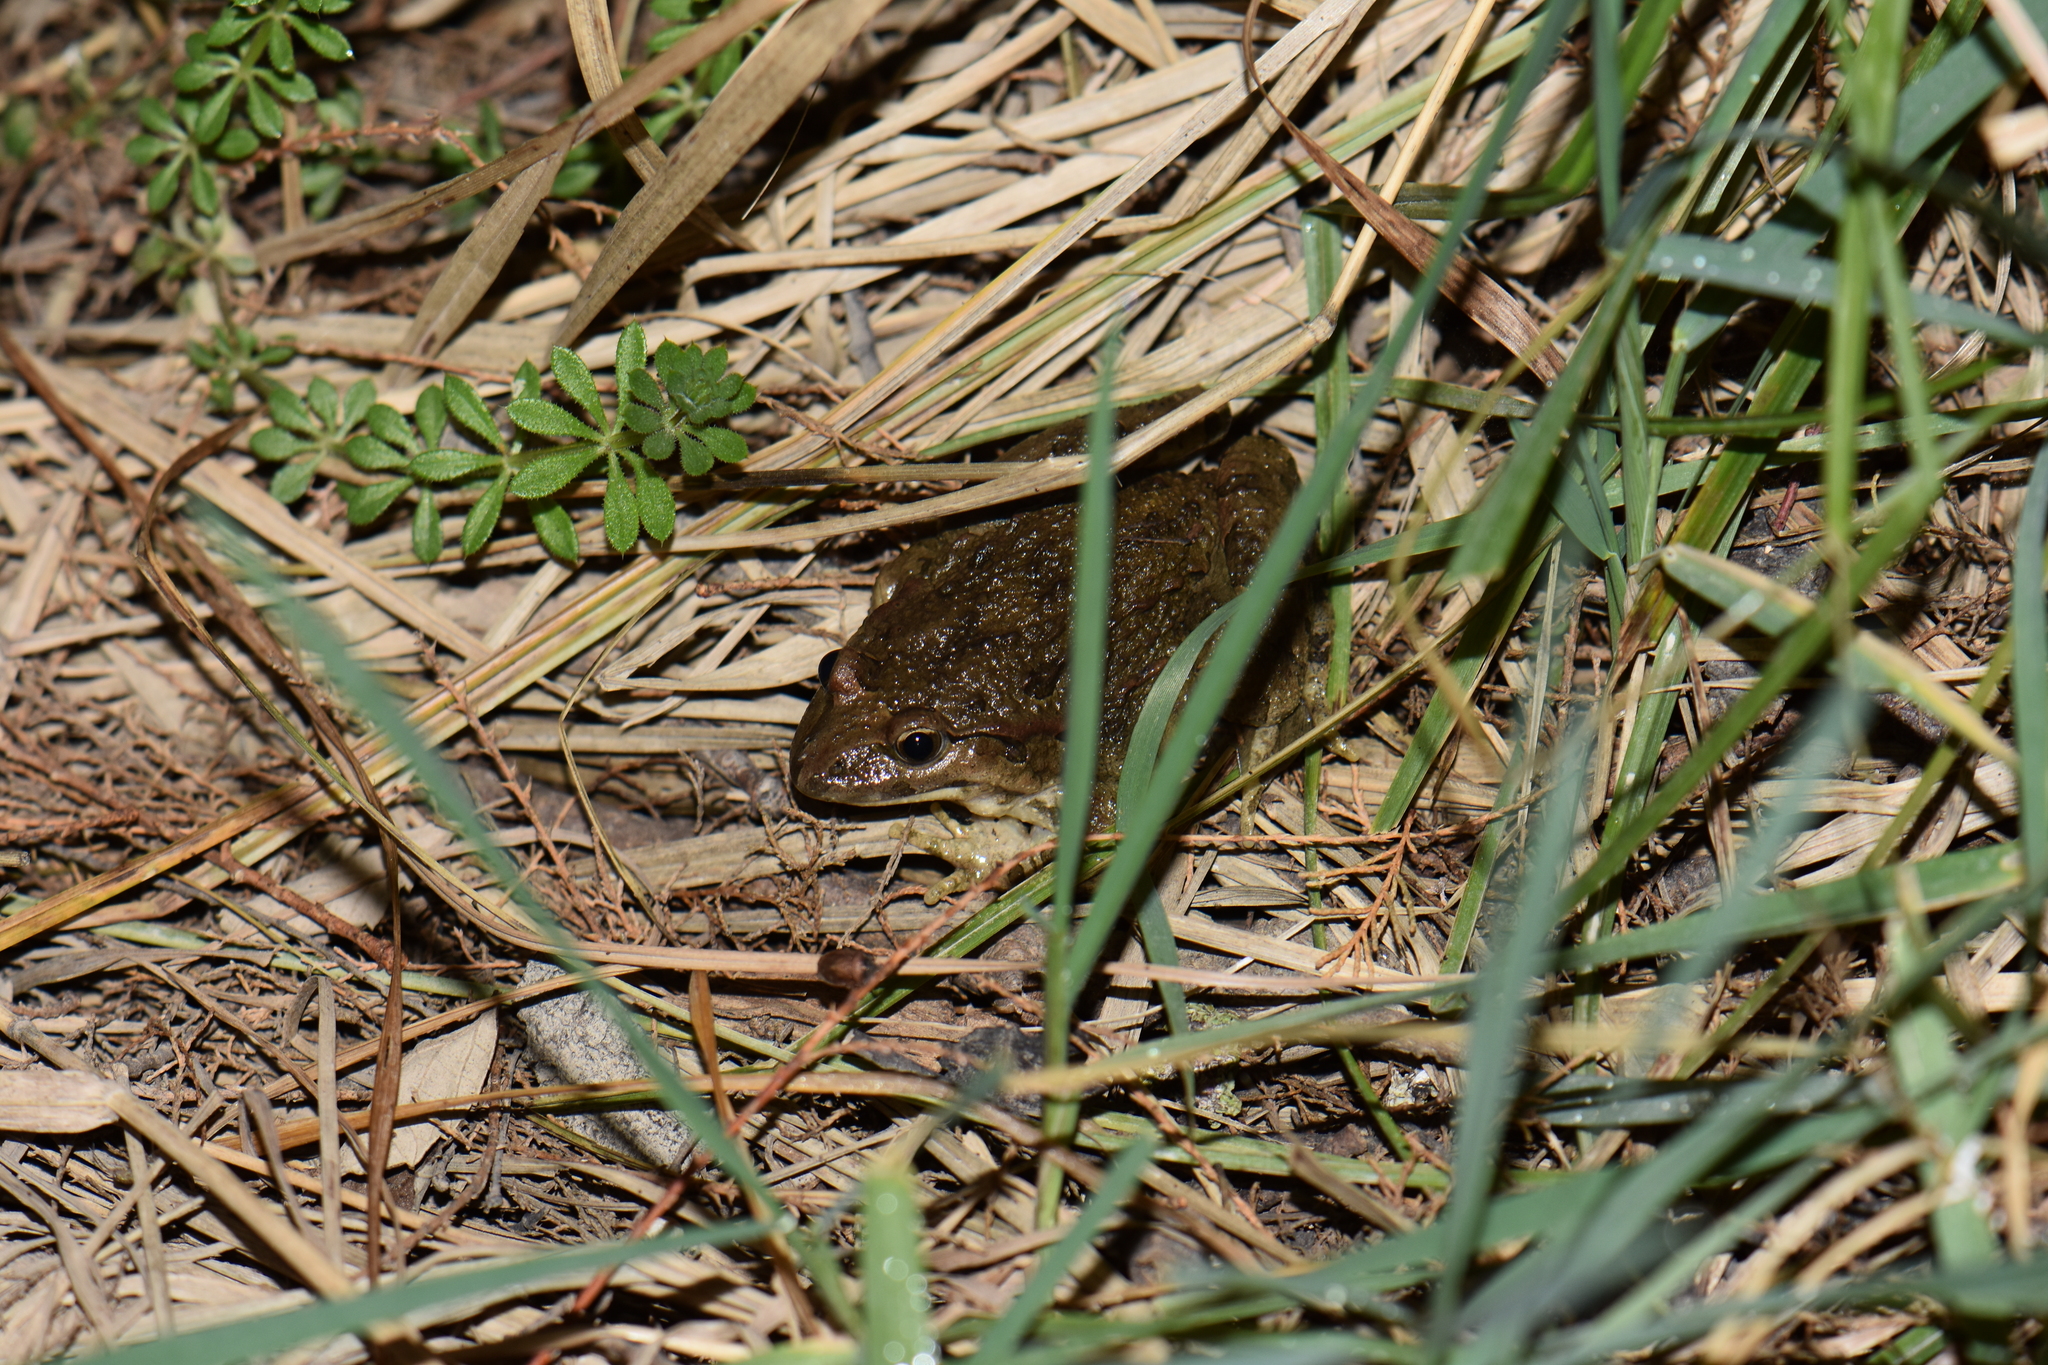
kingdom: Animalia
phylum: Chordata
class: Amphibia
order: Anura
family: Alytidae
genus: Discoglossus
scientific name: Discoglossus pictus
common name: Painted frog
